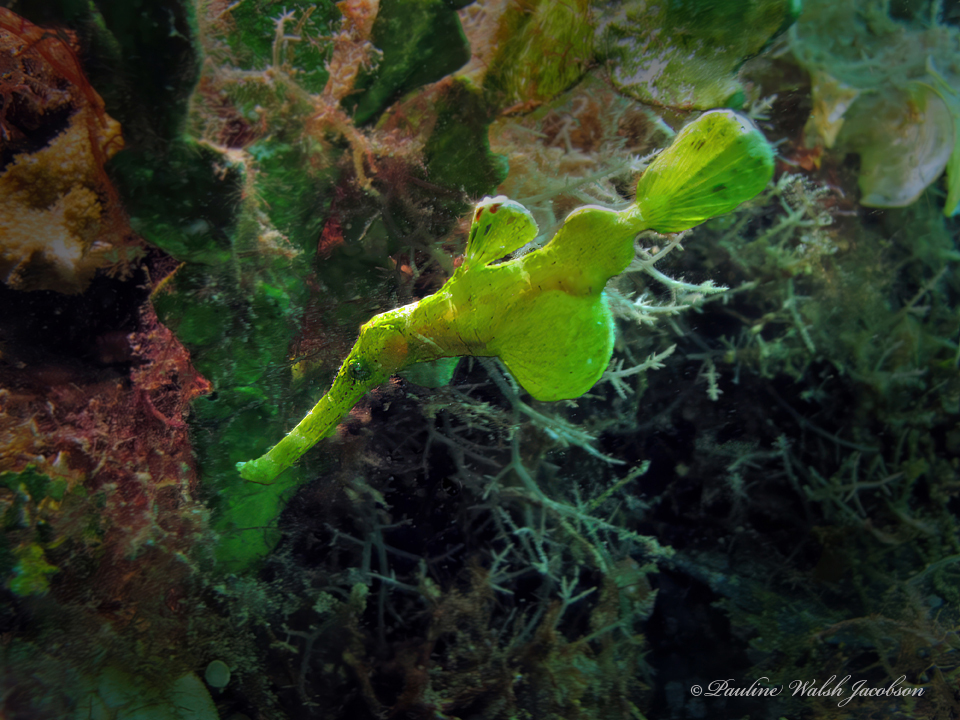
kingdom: Animalia
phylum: Chordata
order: Syngnathiformes
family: Solenostomidae
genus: Solenostomus
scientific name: Solenostomus halimeda
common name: Halimeda ghost pipefish
